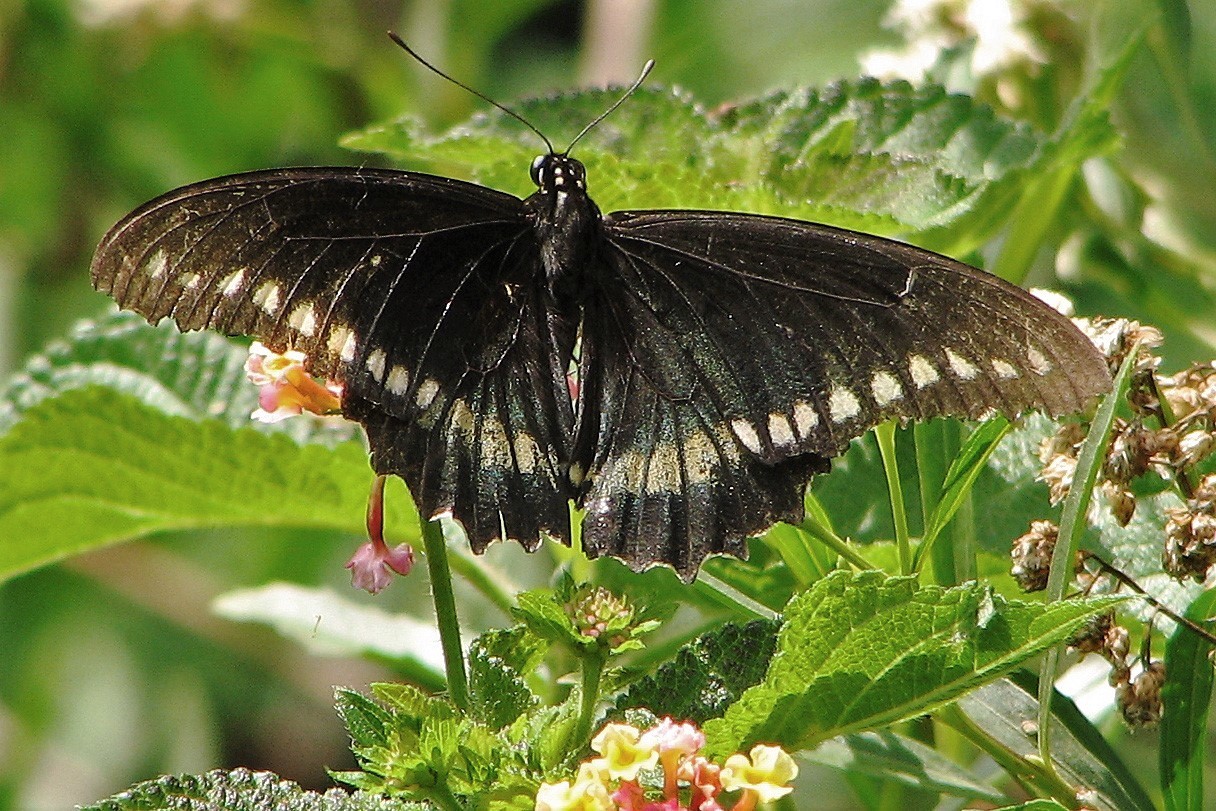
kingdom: Animalia
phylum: Arthropoda
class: Insecta
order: Lepidoptera
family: Papilionidae
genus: Battus
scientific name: Battus polydamas
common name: Polydamas swallowtail
